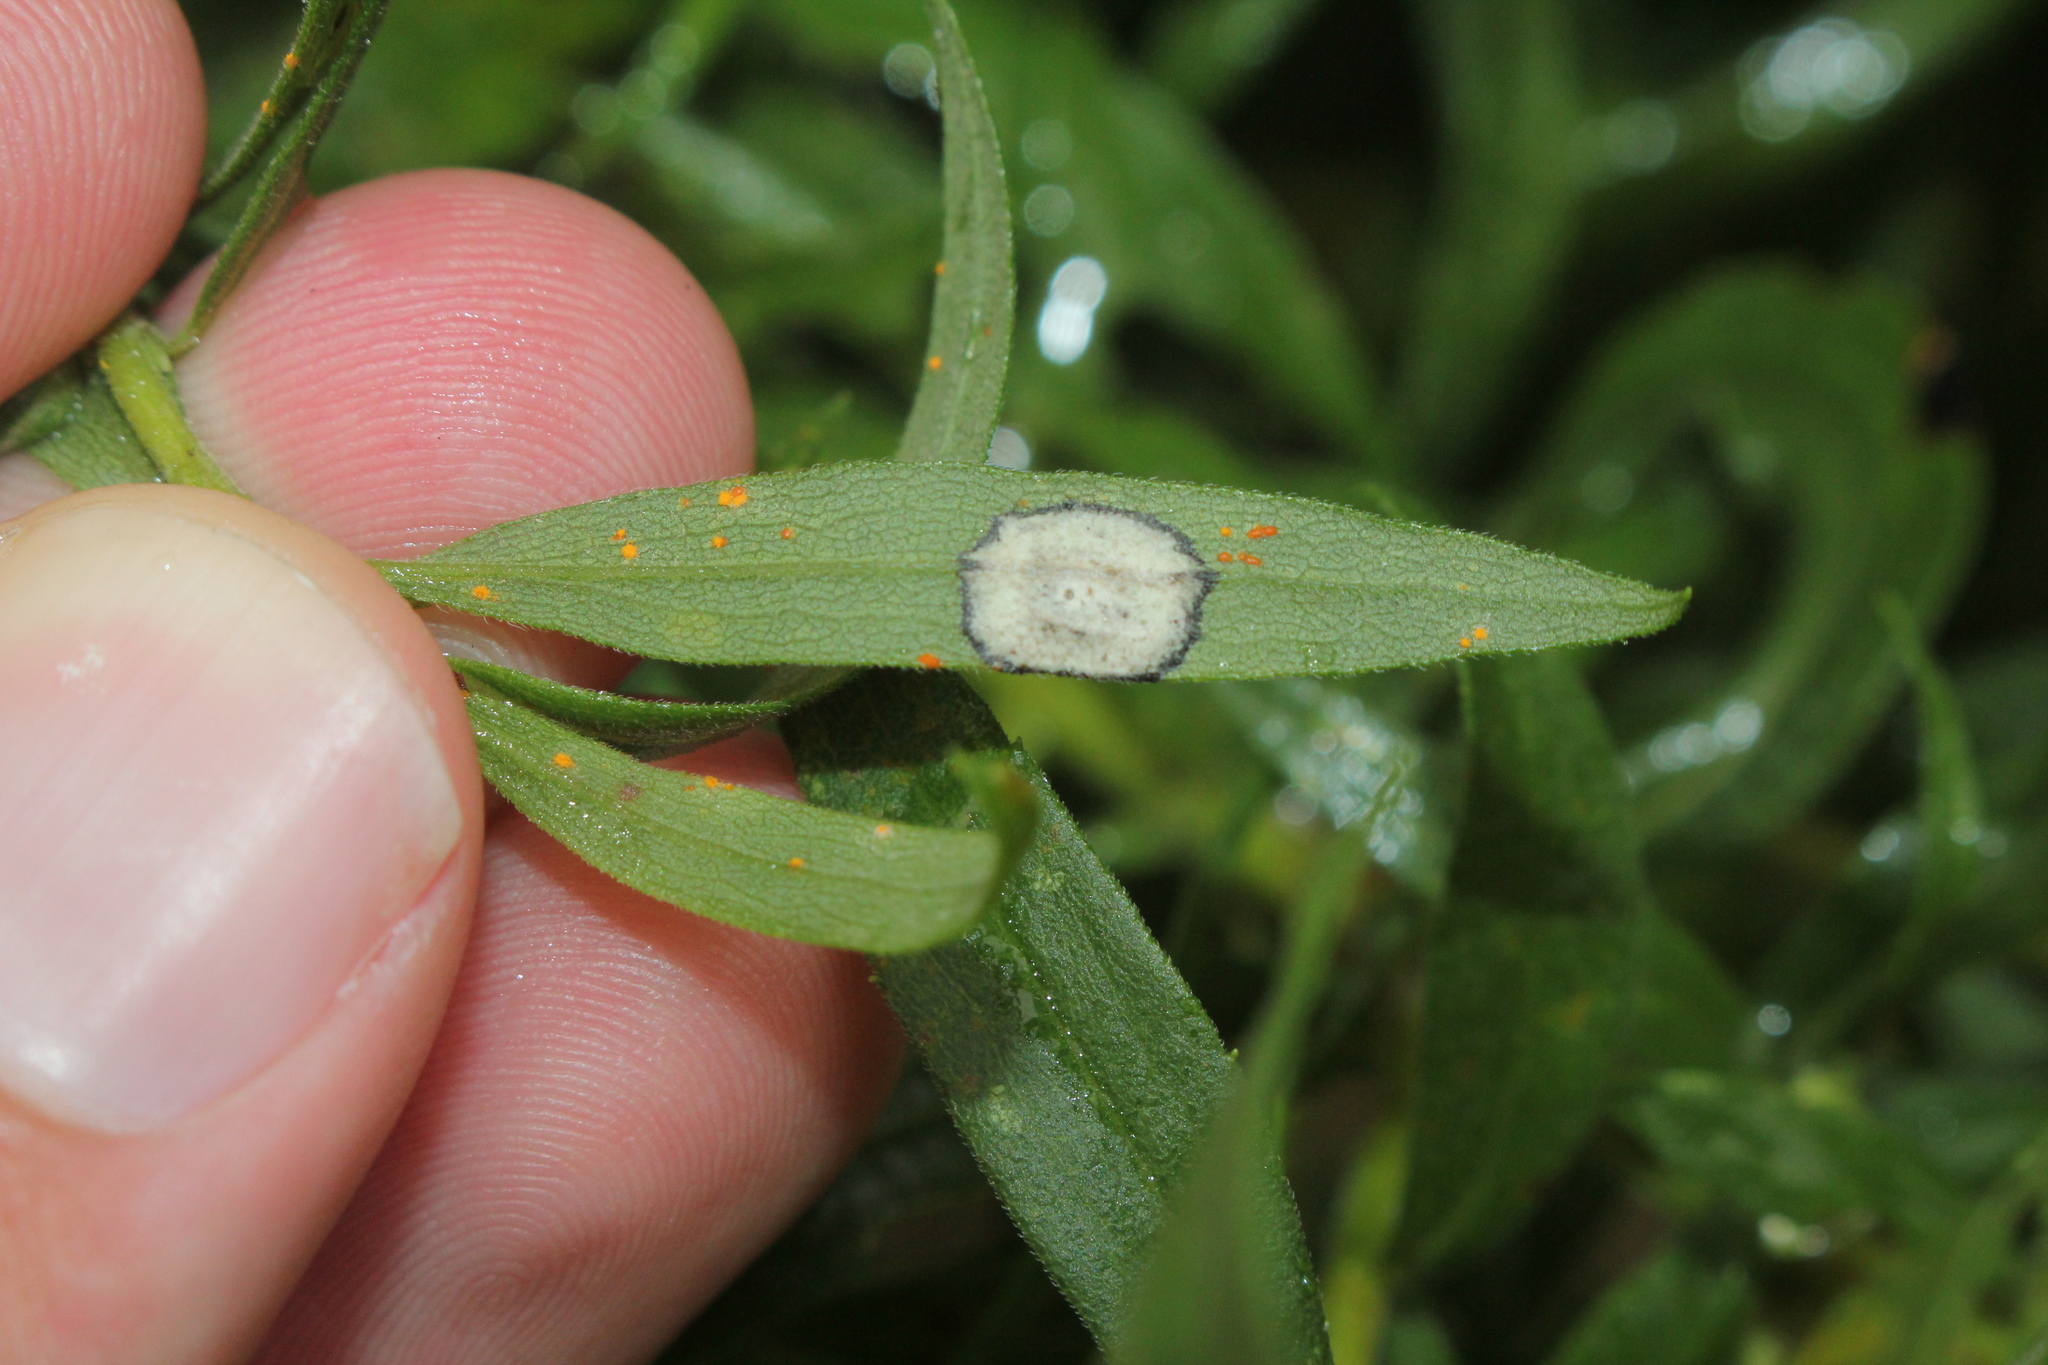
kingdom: Animalia
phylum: Arthropoda
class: Insecta
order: Diptera
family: Cecidomyiidae
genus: Asteromyia
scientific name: Asteromyia carbonifera
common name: Carbonifera goldenrod gall midge
